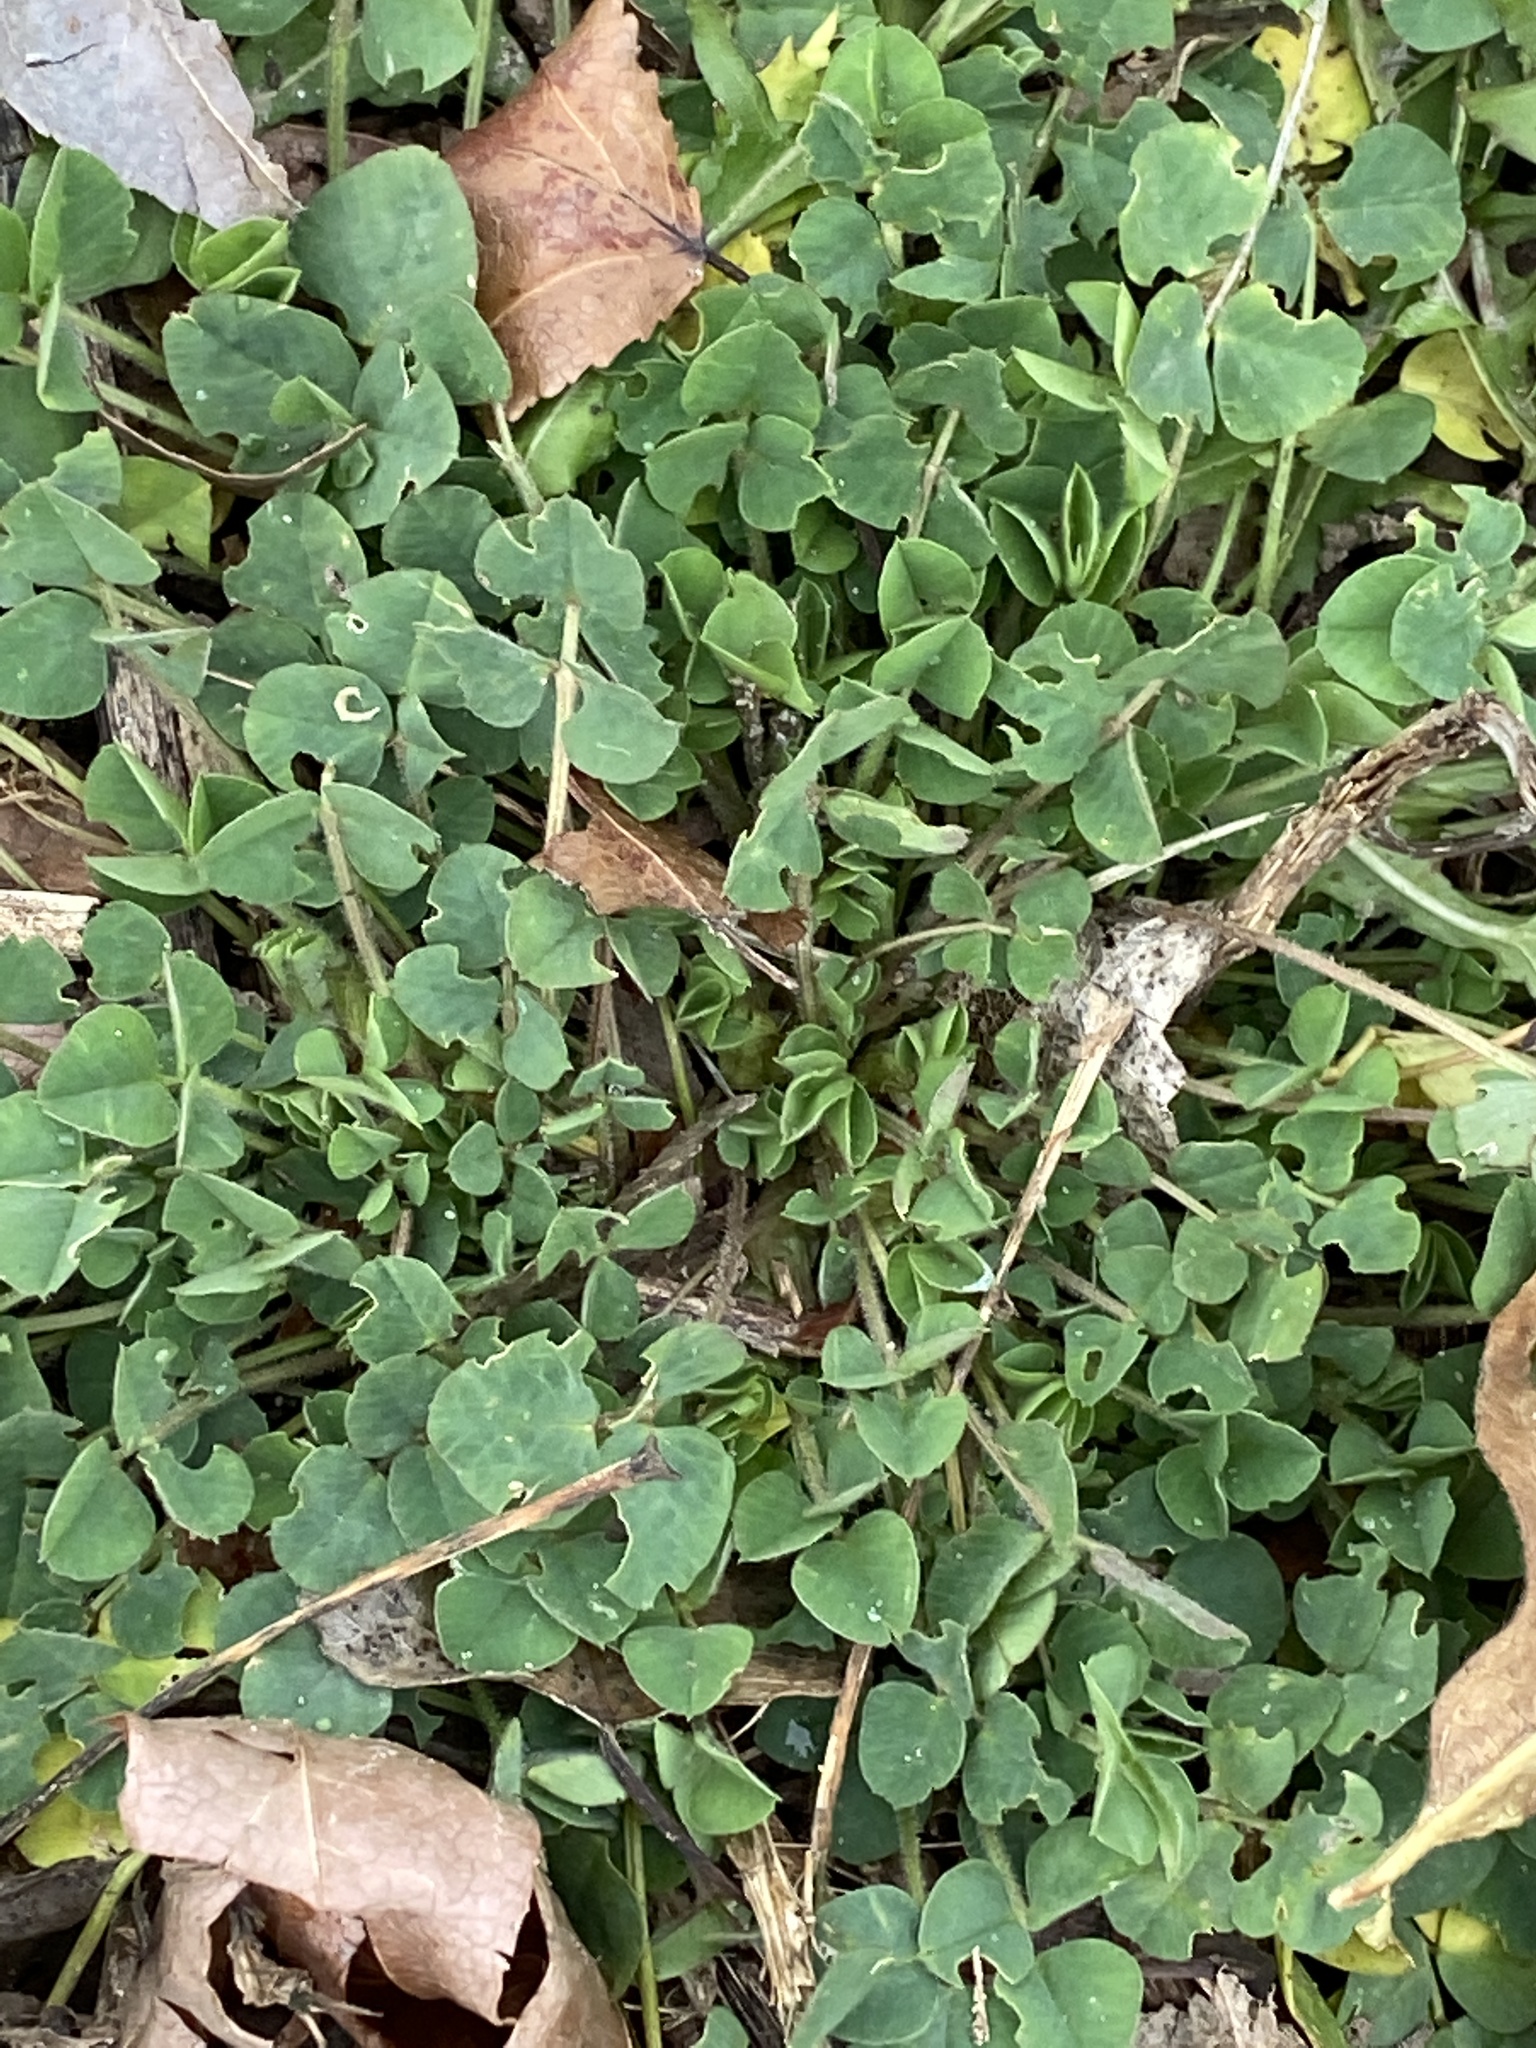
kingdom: Plantae
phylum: Tracheophyta
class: Magnoliopsida
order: Fabales
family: Fabaceae
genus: Medicago
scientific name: Medicago lupulina
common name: Black medick
